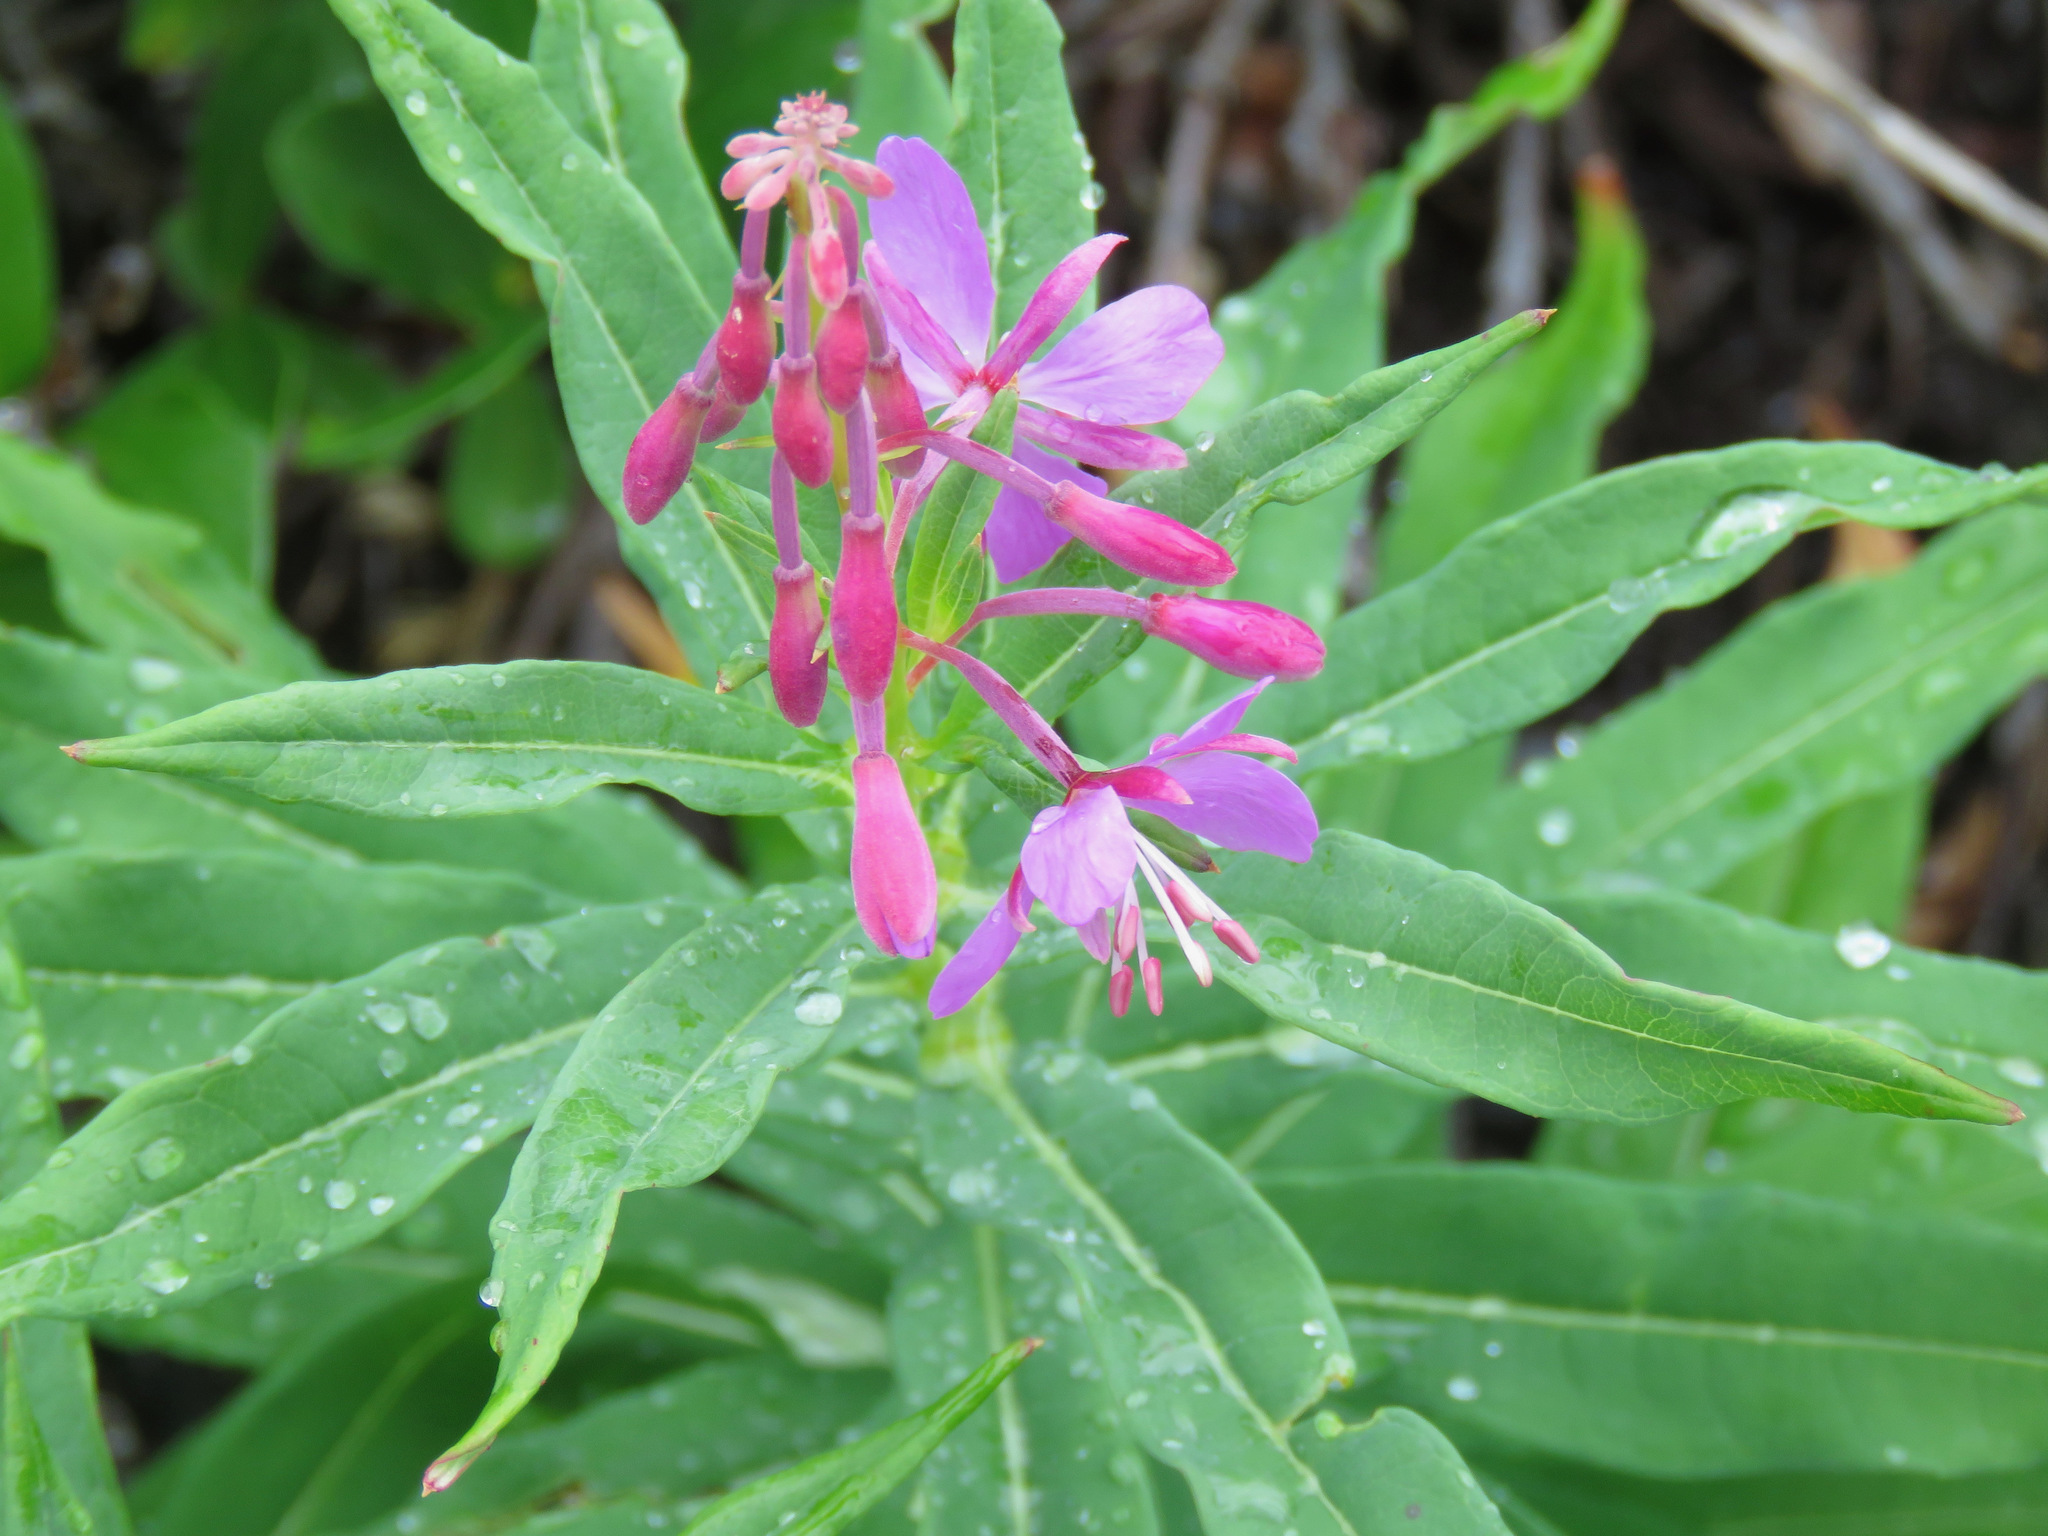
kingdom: Plantae
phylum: Tracheophyta
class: Magnoliopsida
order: Myrtales
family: Onagraceae
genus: Chamaenerion
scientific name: Chamaenerion angustifolium
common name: Fireweed
